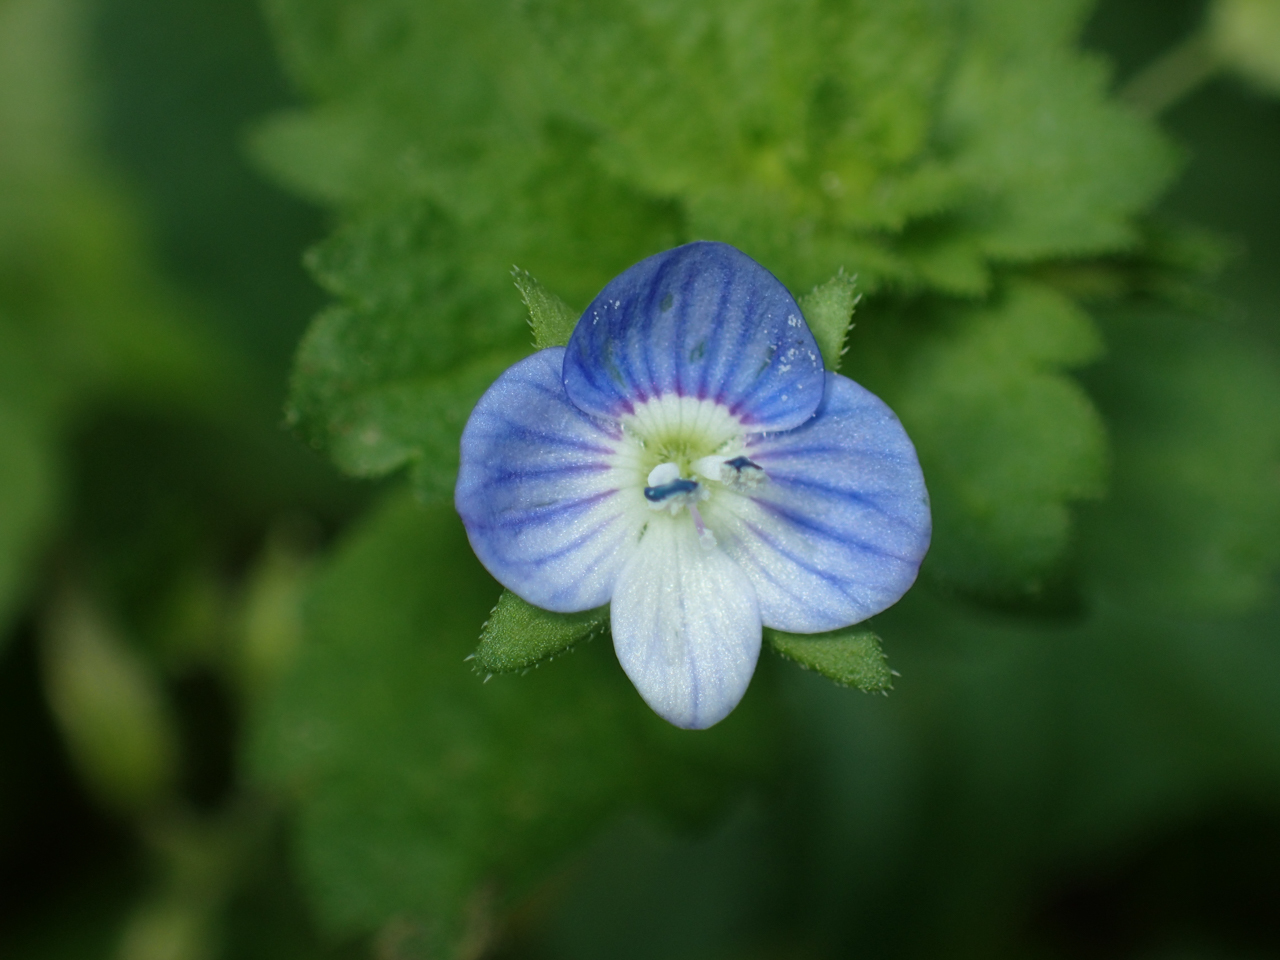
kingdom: Plantae
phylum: Tracheophyta
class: Magnoliopsida
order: Lamiales
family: Plantaginaceae
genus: Veronica
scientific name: Veronica persica
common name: Common field-speedwell
